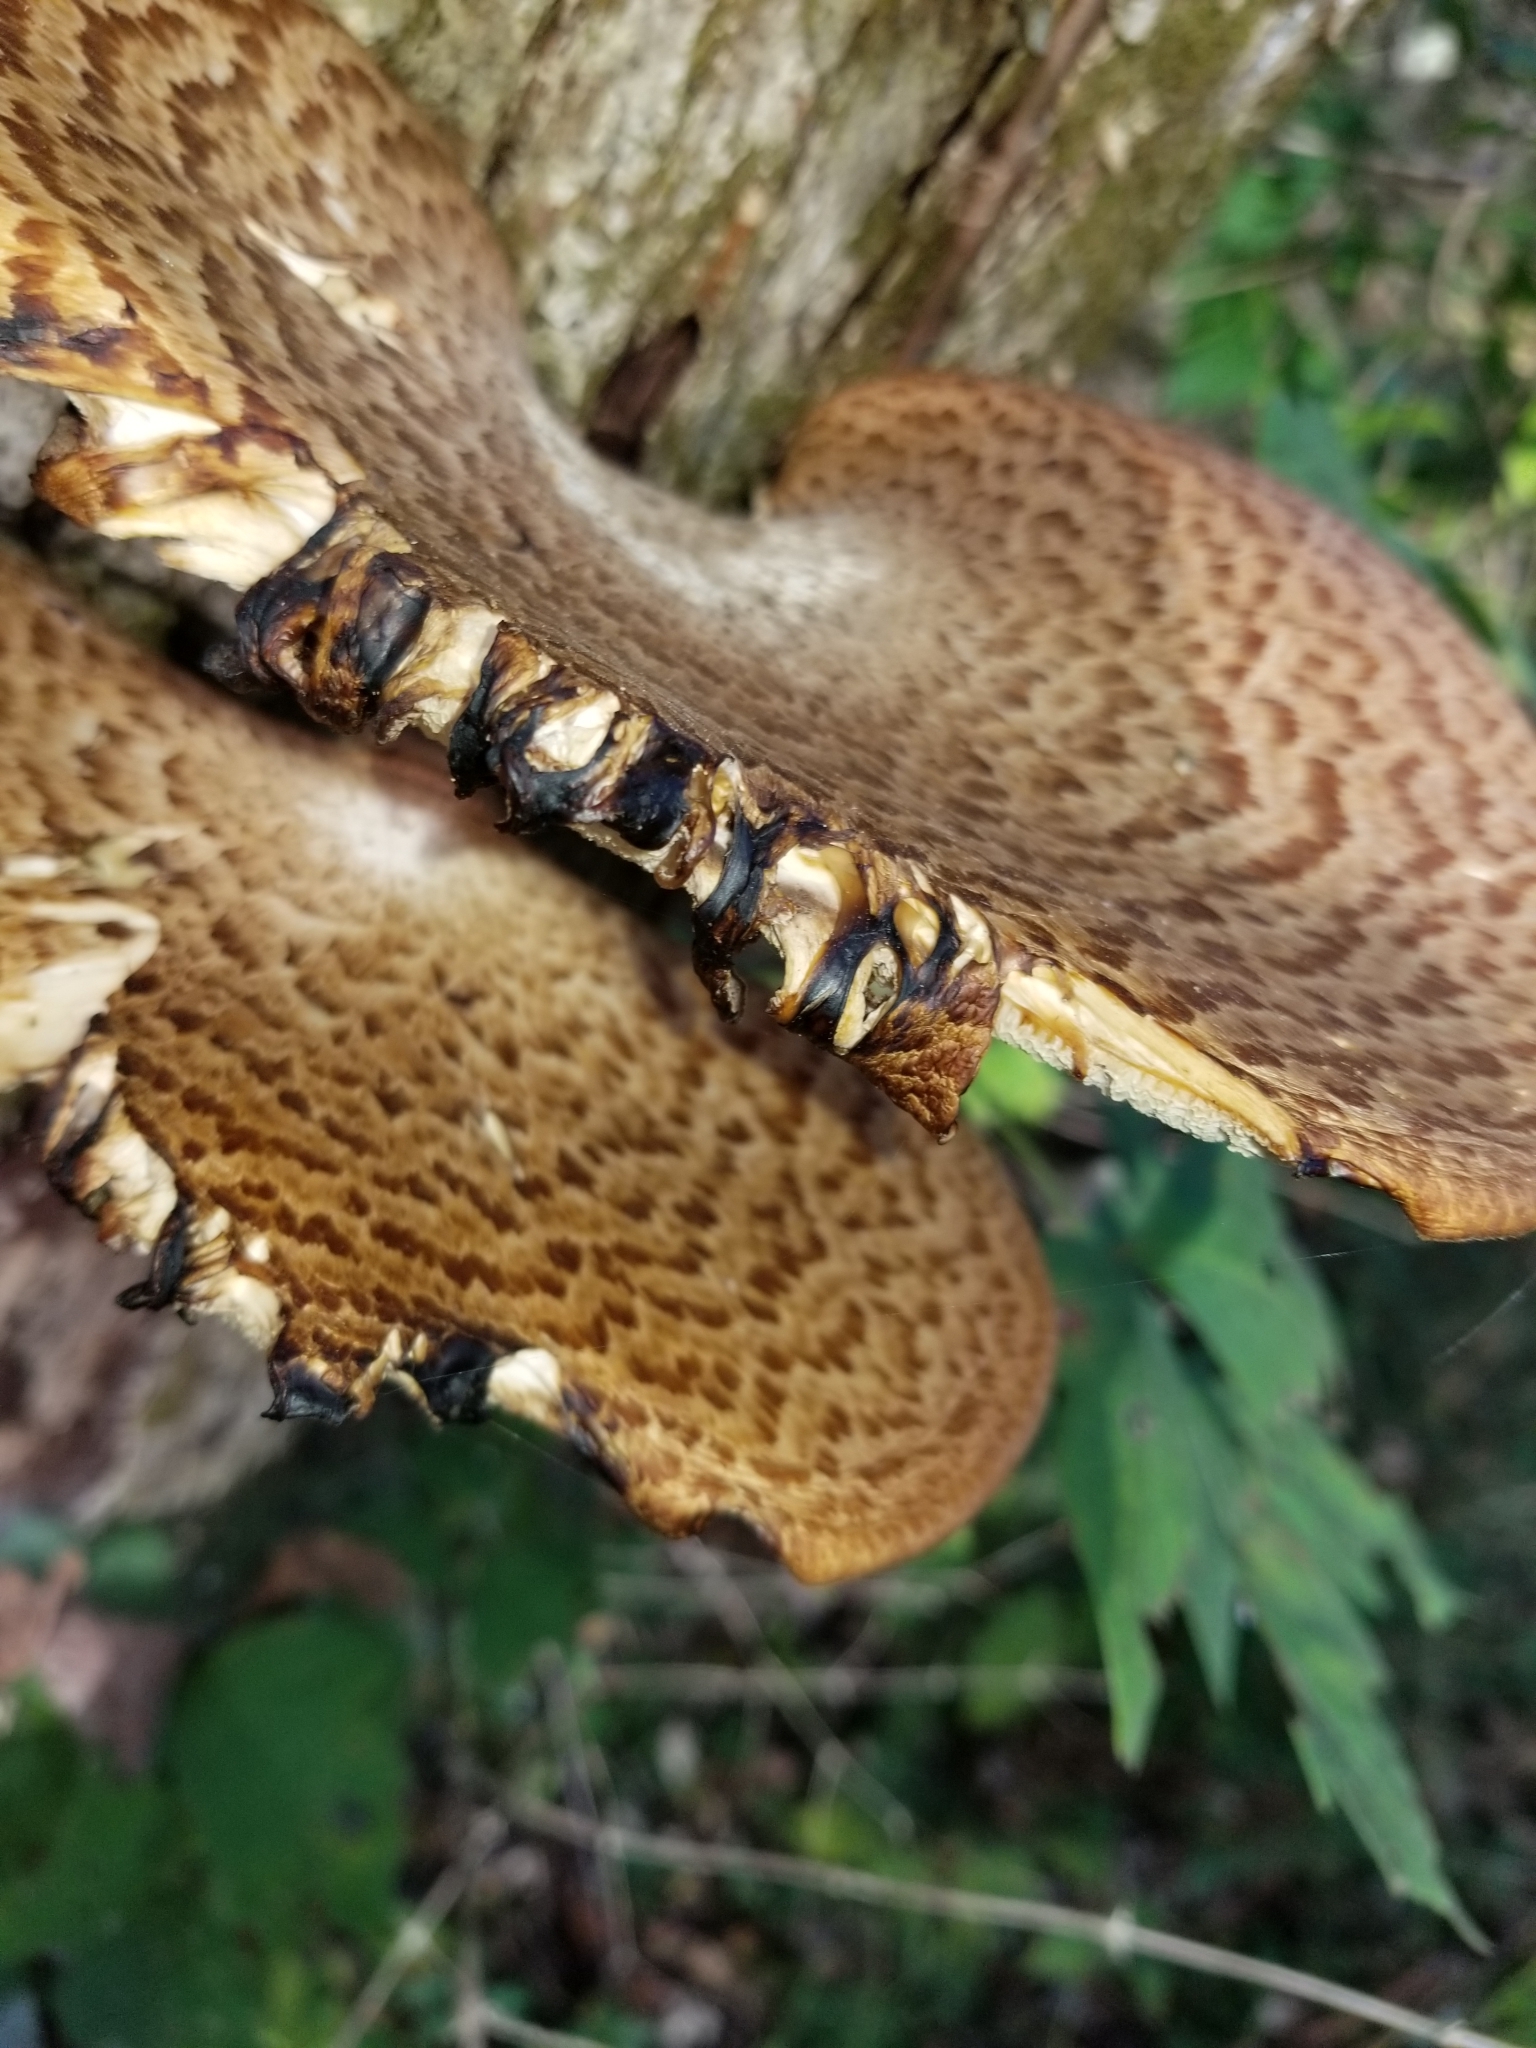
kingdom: Fungi
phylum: Basidiomycota
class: Agaricomycetes
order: Polyporales
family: Polyporaceae
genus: Cerioporus
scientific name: Cerioporus squamosus
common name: Dryad's saddle
